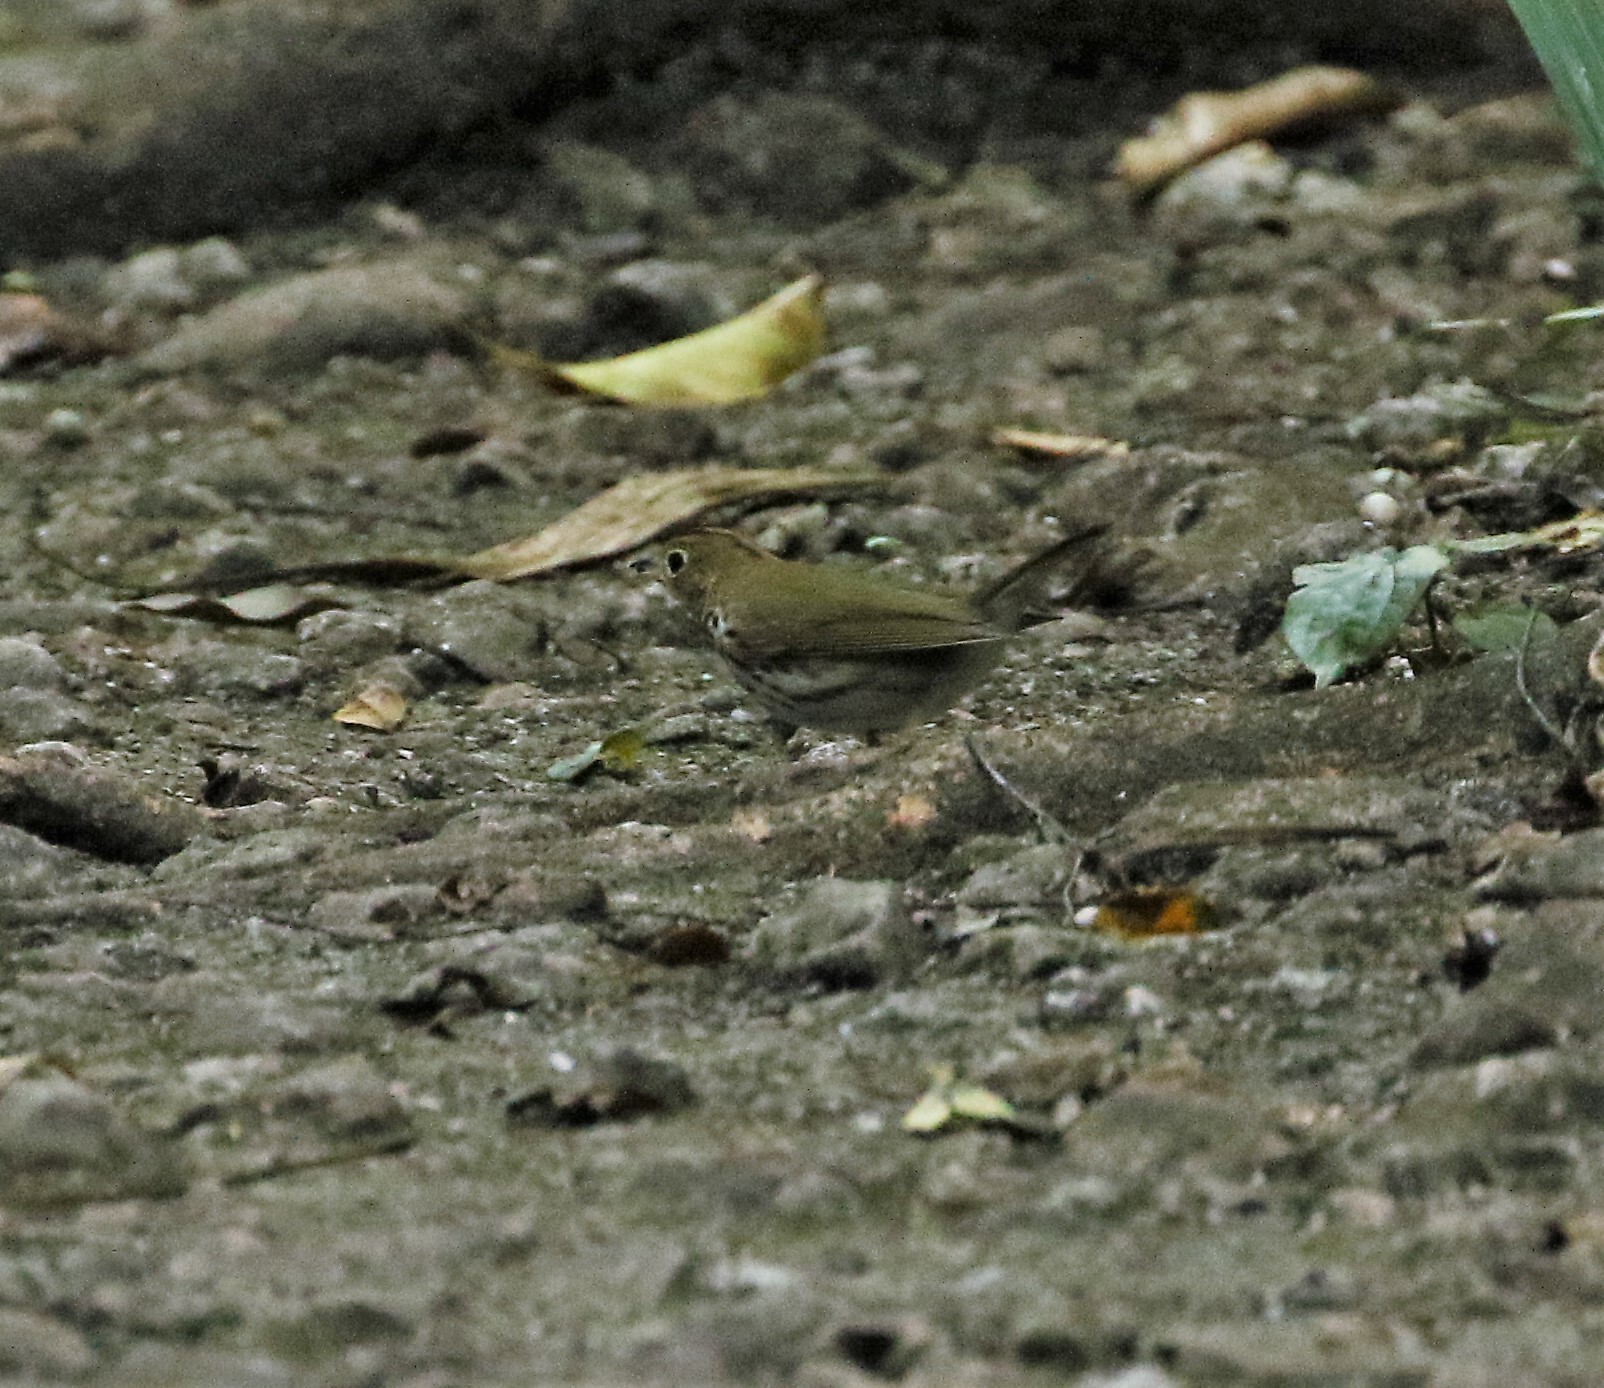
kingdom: Animalia
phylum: Chordata
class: Aves
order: Passeriformes
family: Turdidae
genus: Hylocichla
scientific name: Hylocichla mustelina
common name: Wood thrush
